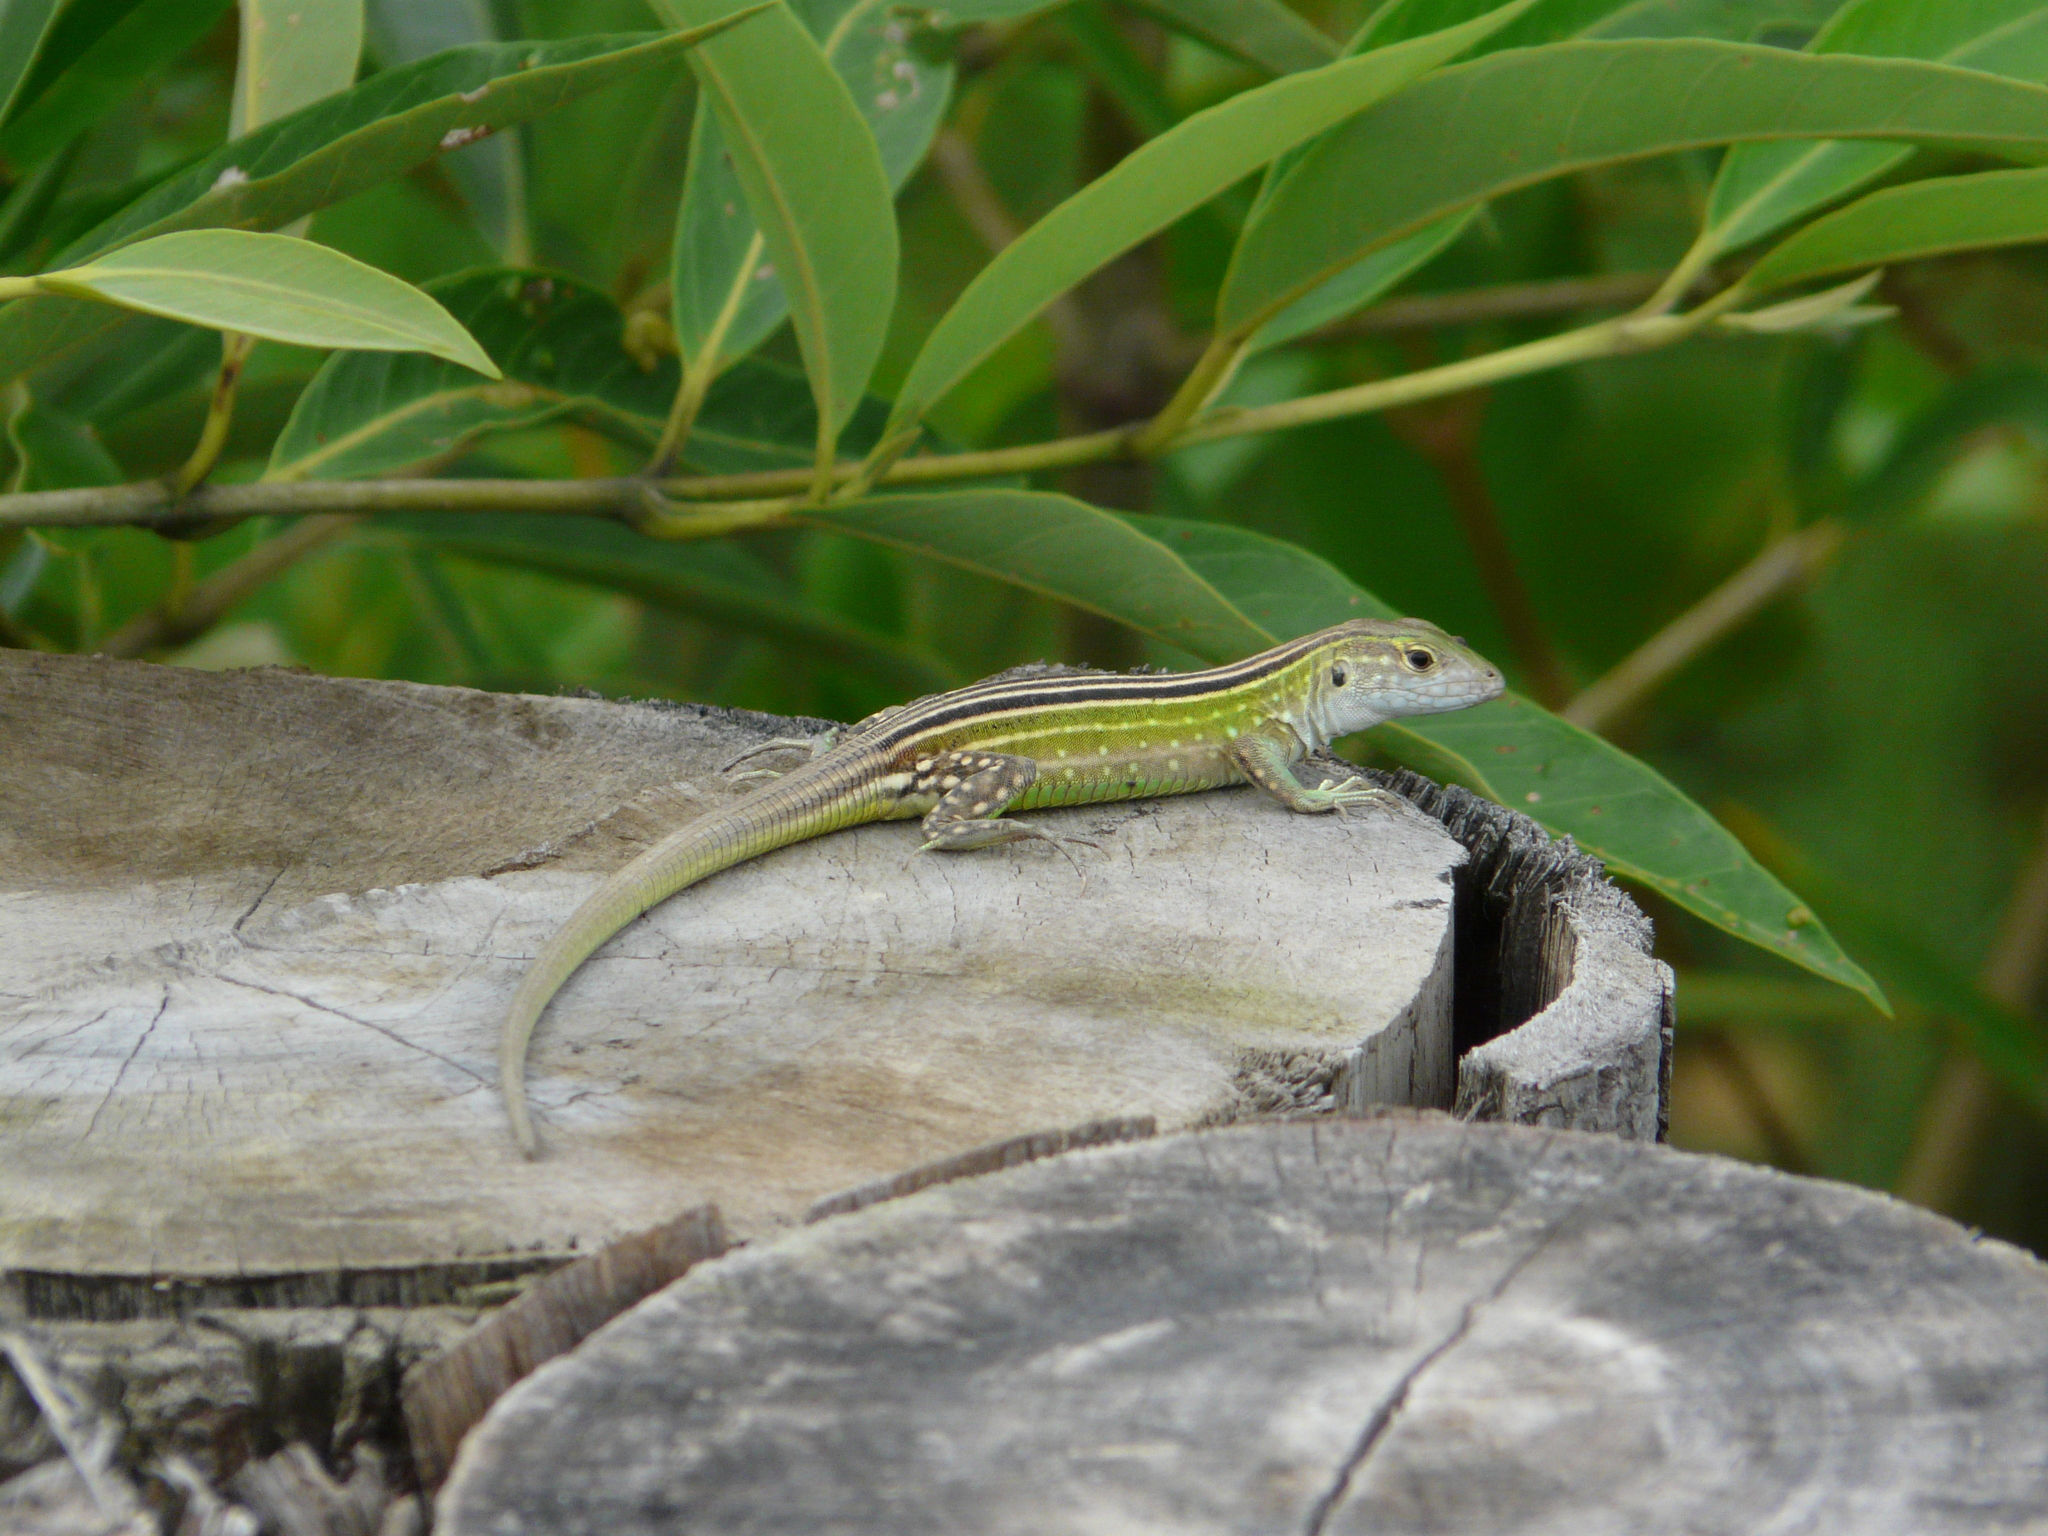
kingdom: Animalia
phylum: Chordata
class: Squamata
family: Teiidae
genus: Cnemidophorus
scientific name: Cnemidophorus lemniscatus
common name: Rainbow whiptail
